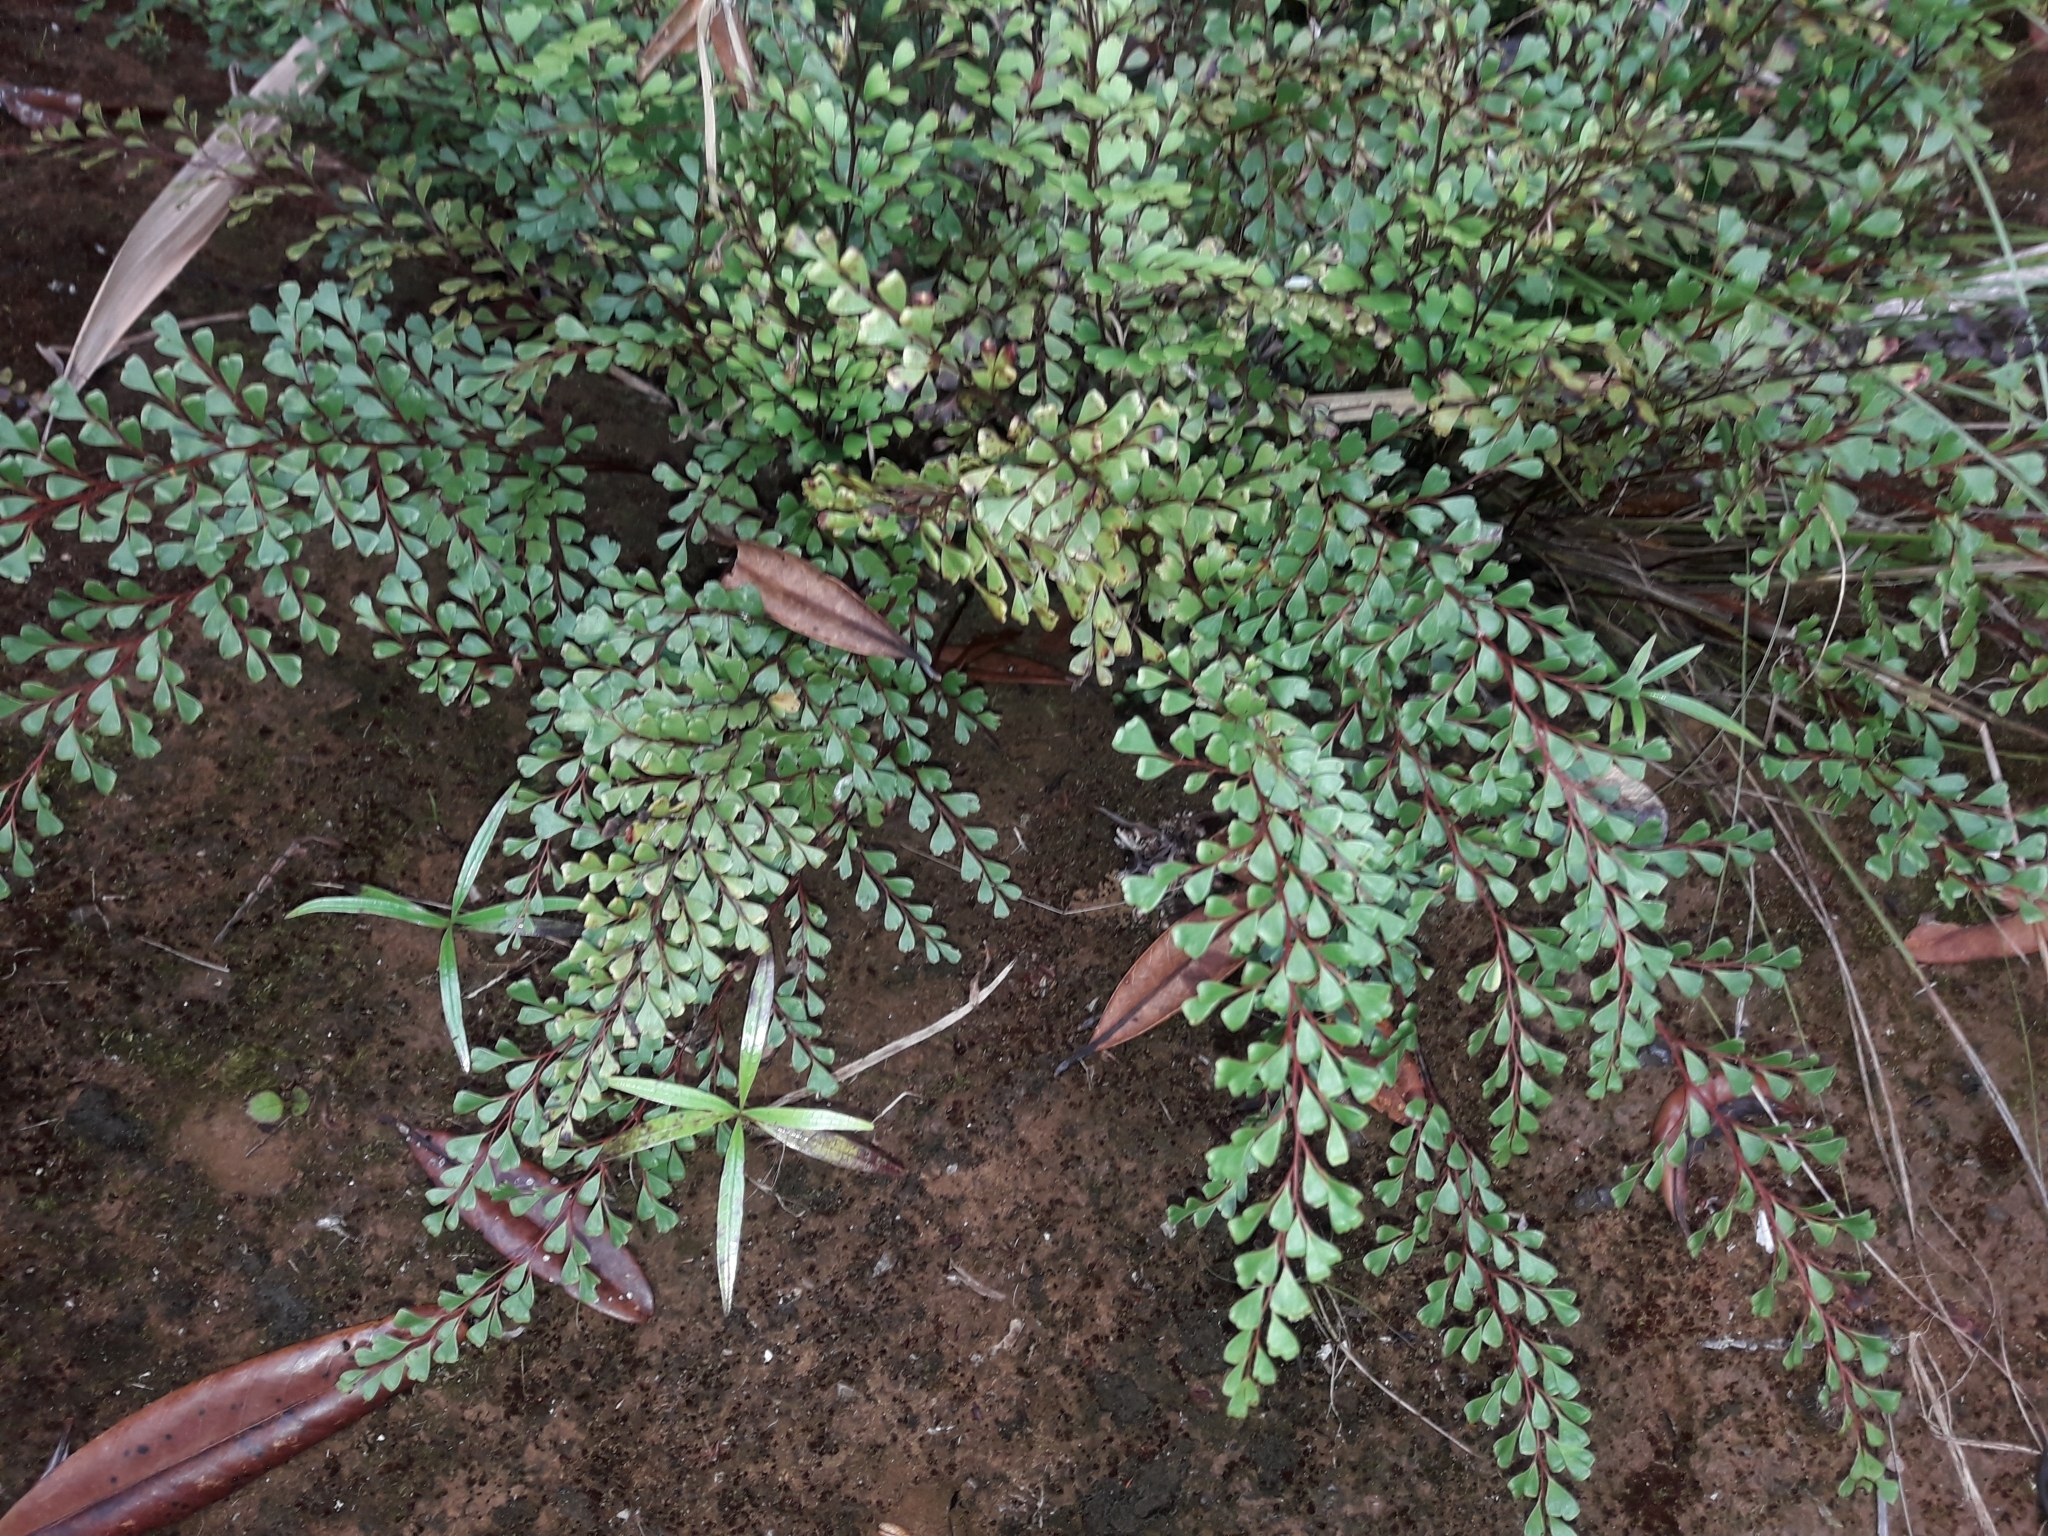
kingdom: Plantae
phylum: Tracheophyta
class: Polypodiopsida
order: Polypodiales
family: Lindsaeaceae
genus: Odontosoria
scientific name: Odontosoria alutacea
